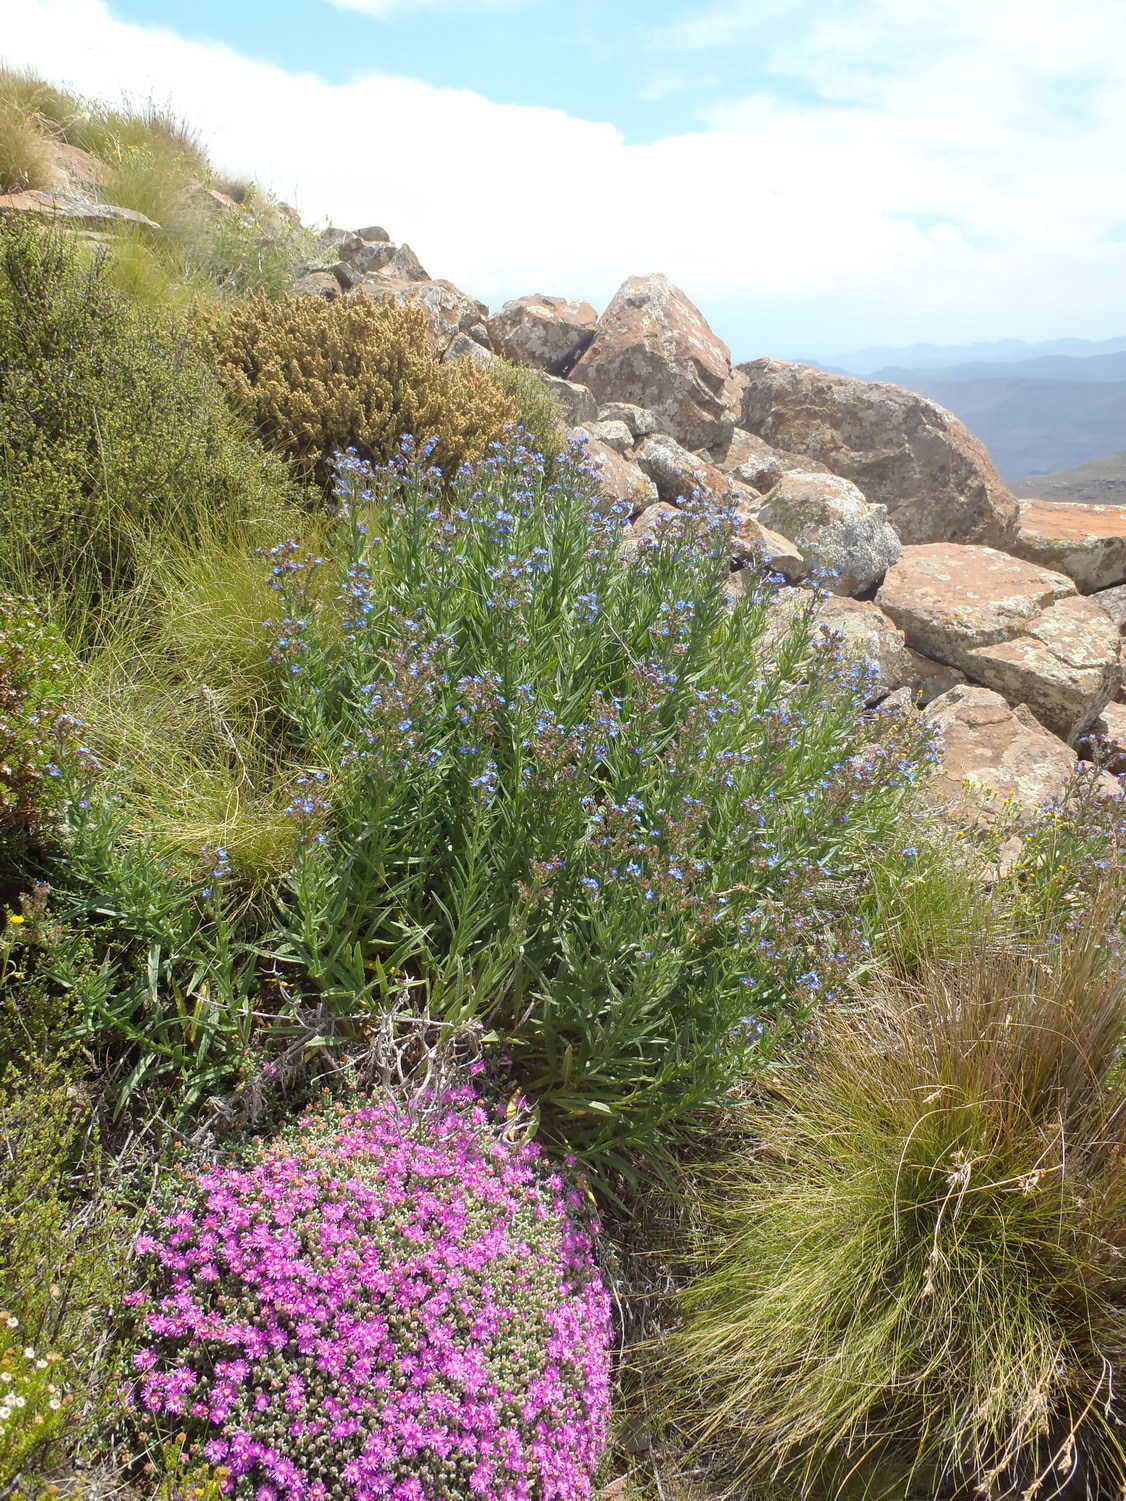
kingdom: Plantae
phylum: Tracheophyta
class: Magnoliopsida
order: Boraginales
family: Boraginaceae
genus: Anchusa
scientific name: Anchusa capensis
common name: Cape bugloss
